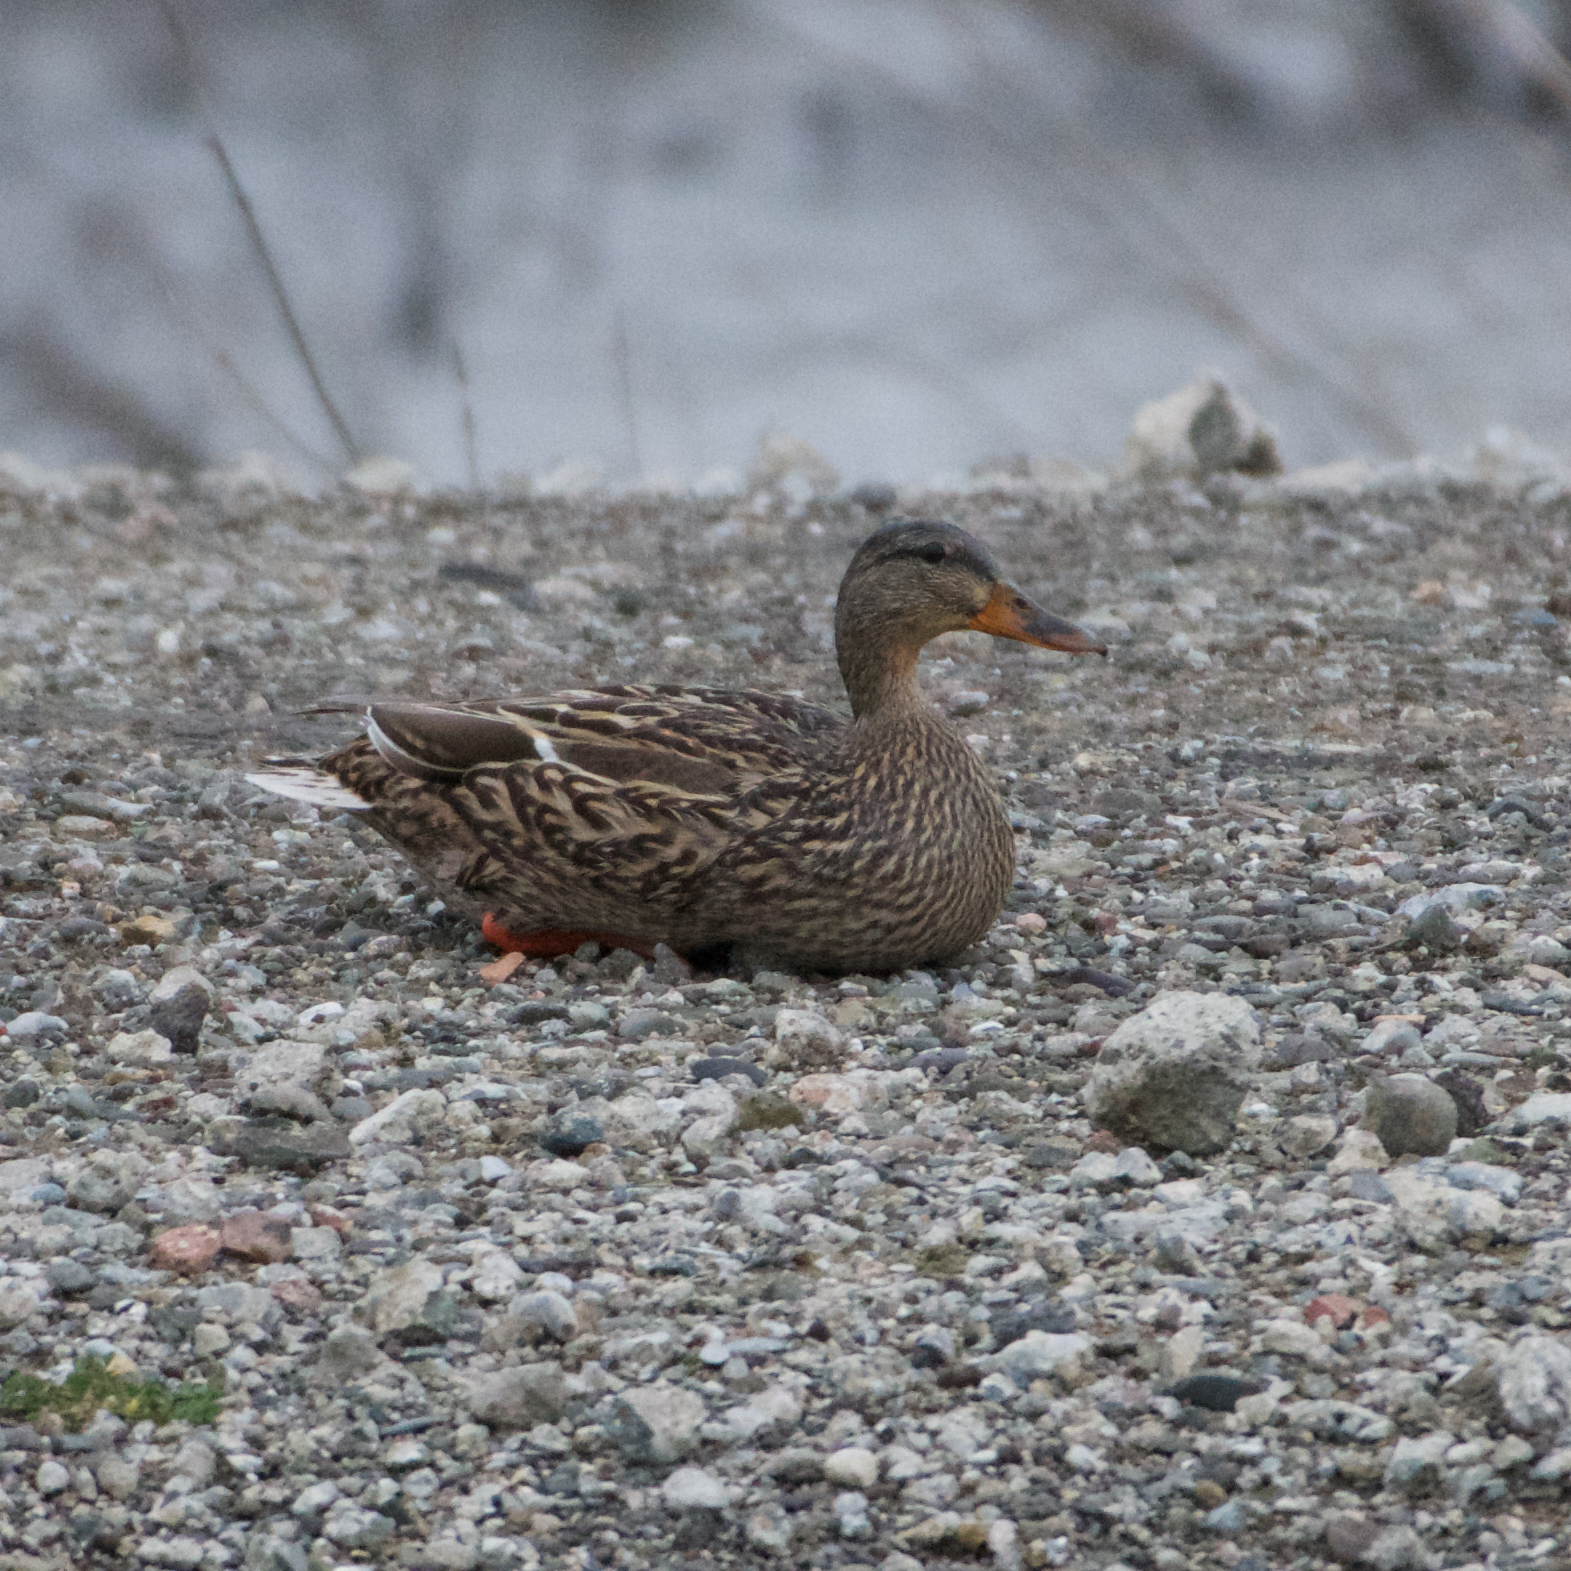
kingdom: Animalia
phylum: Chordata
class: Aves
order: Anseriformes
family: Anatidae
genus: Anas
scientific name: Anas platyrhynchos
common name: Mallard
